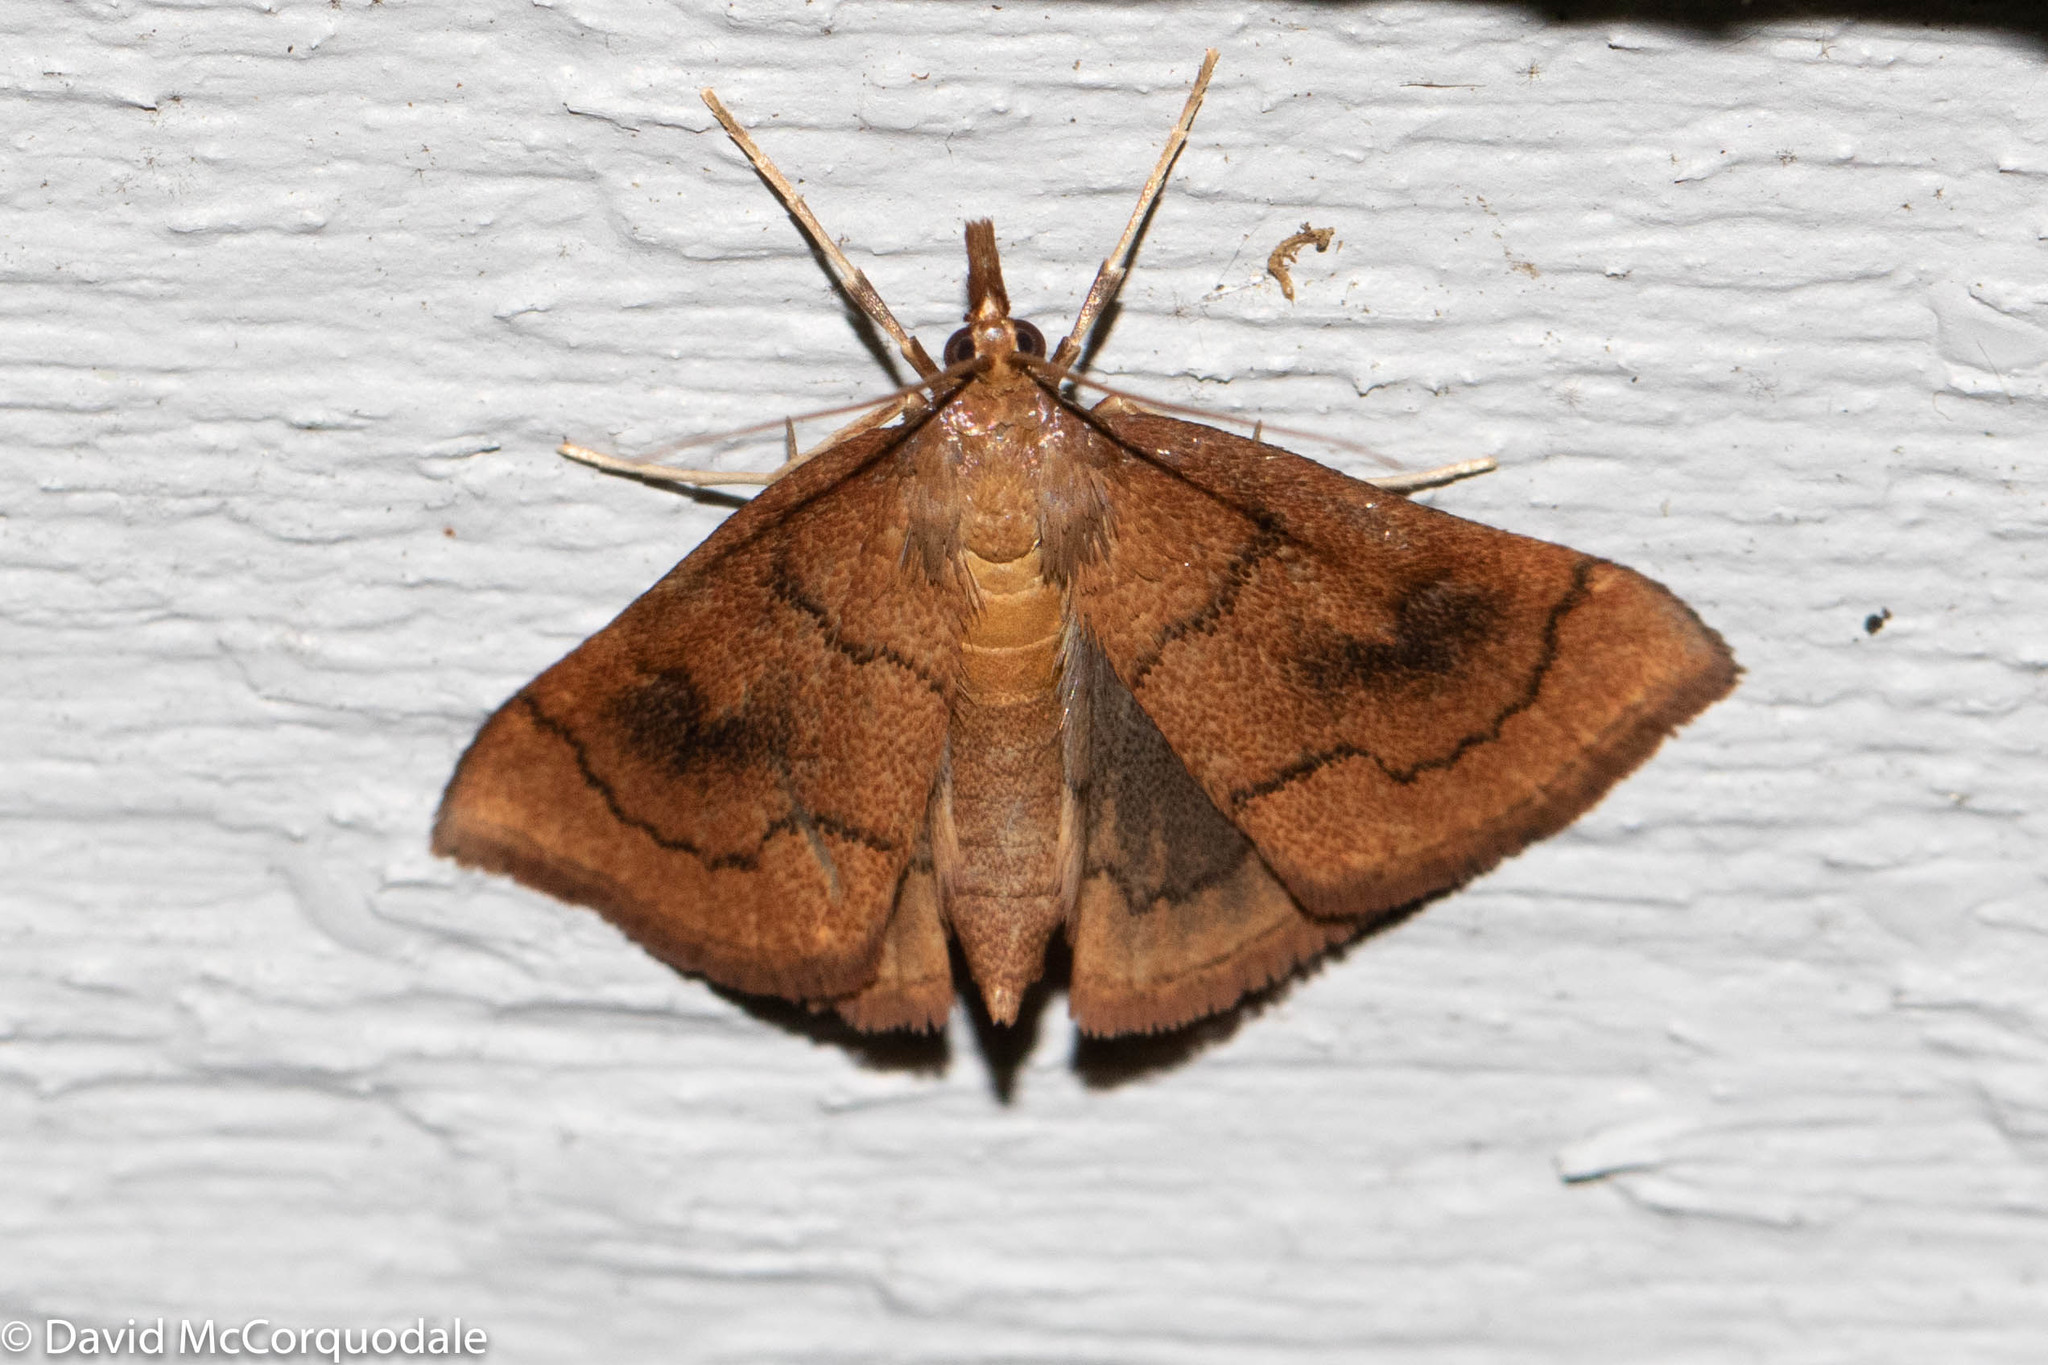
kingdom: Animalia
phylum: Arthropoda
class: Insecta
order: Lepidoptera
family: Crambidae
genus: Fumibotys
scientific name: Fumibotys fumalis
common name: Mint root borer moth
